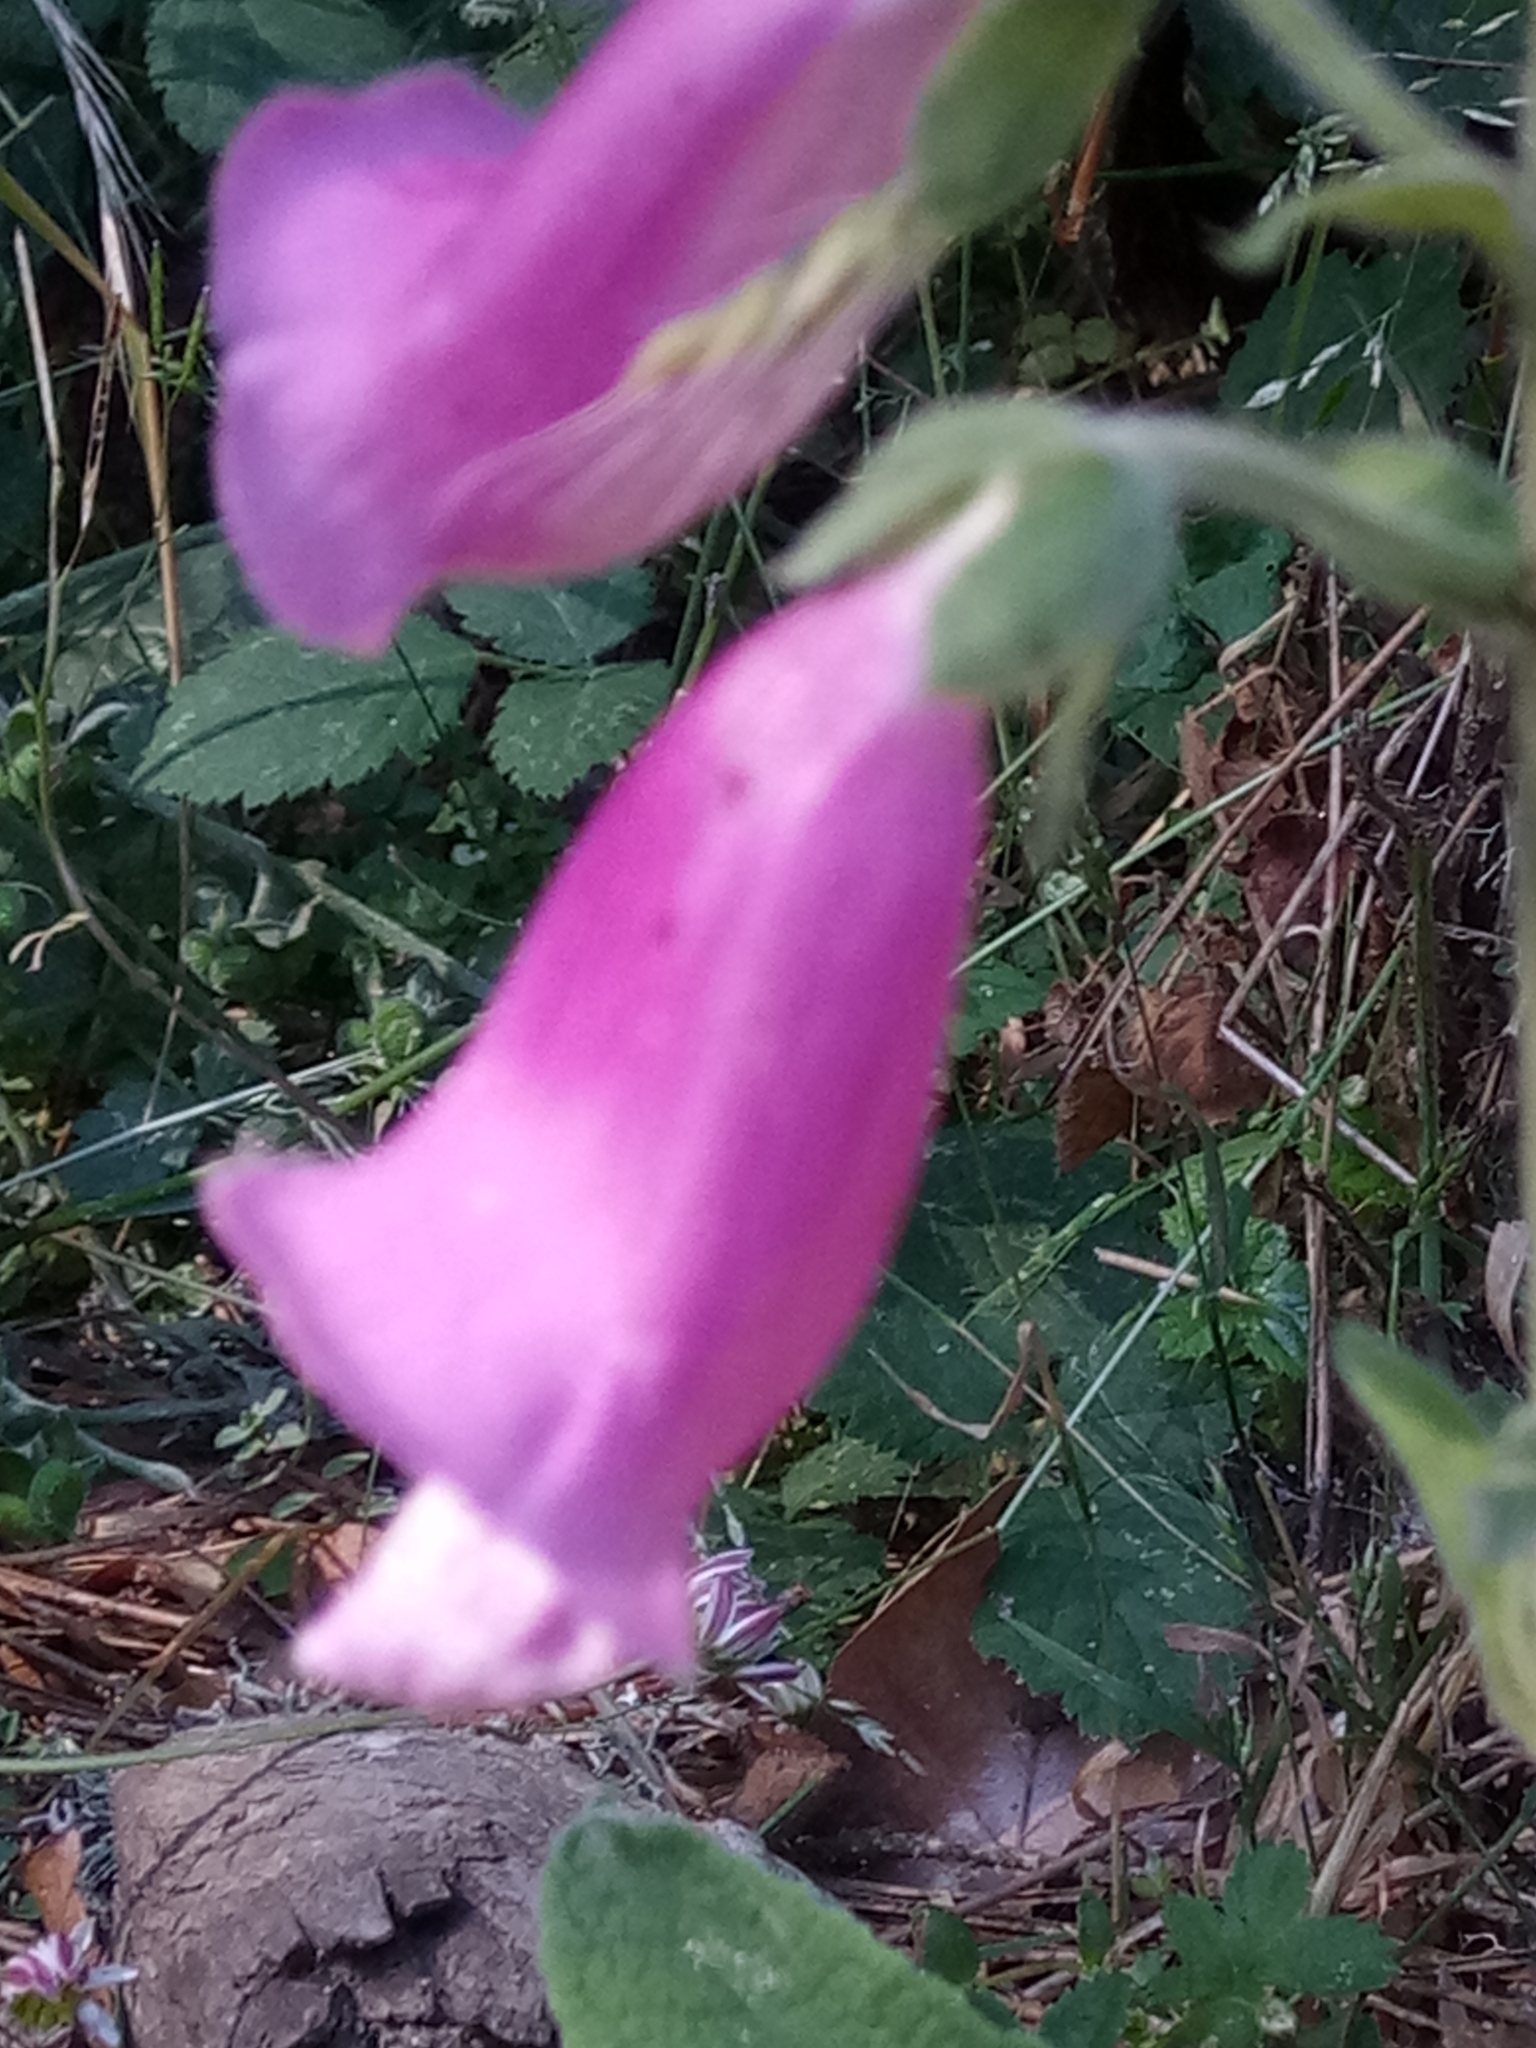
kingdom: Plantae
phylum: Tracheophyta
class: Magnoliopsida
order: Lamiales
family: Plantaginaceae
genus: Digitalis
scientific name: Digitalis purpurea
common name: Foxglove
